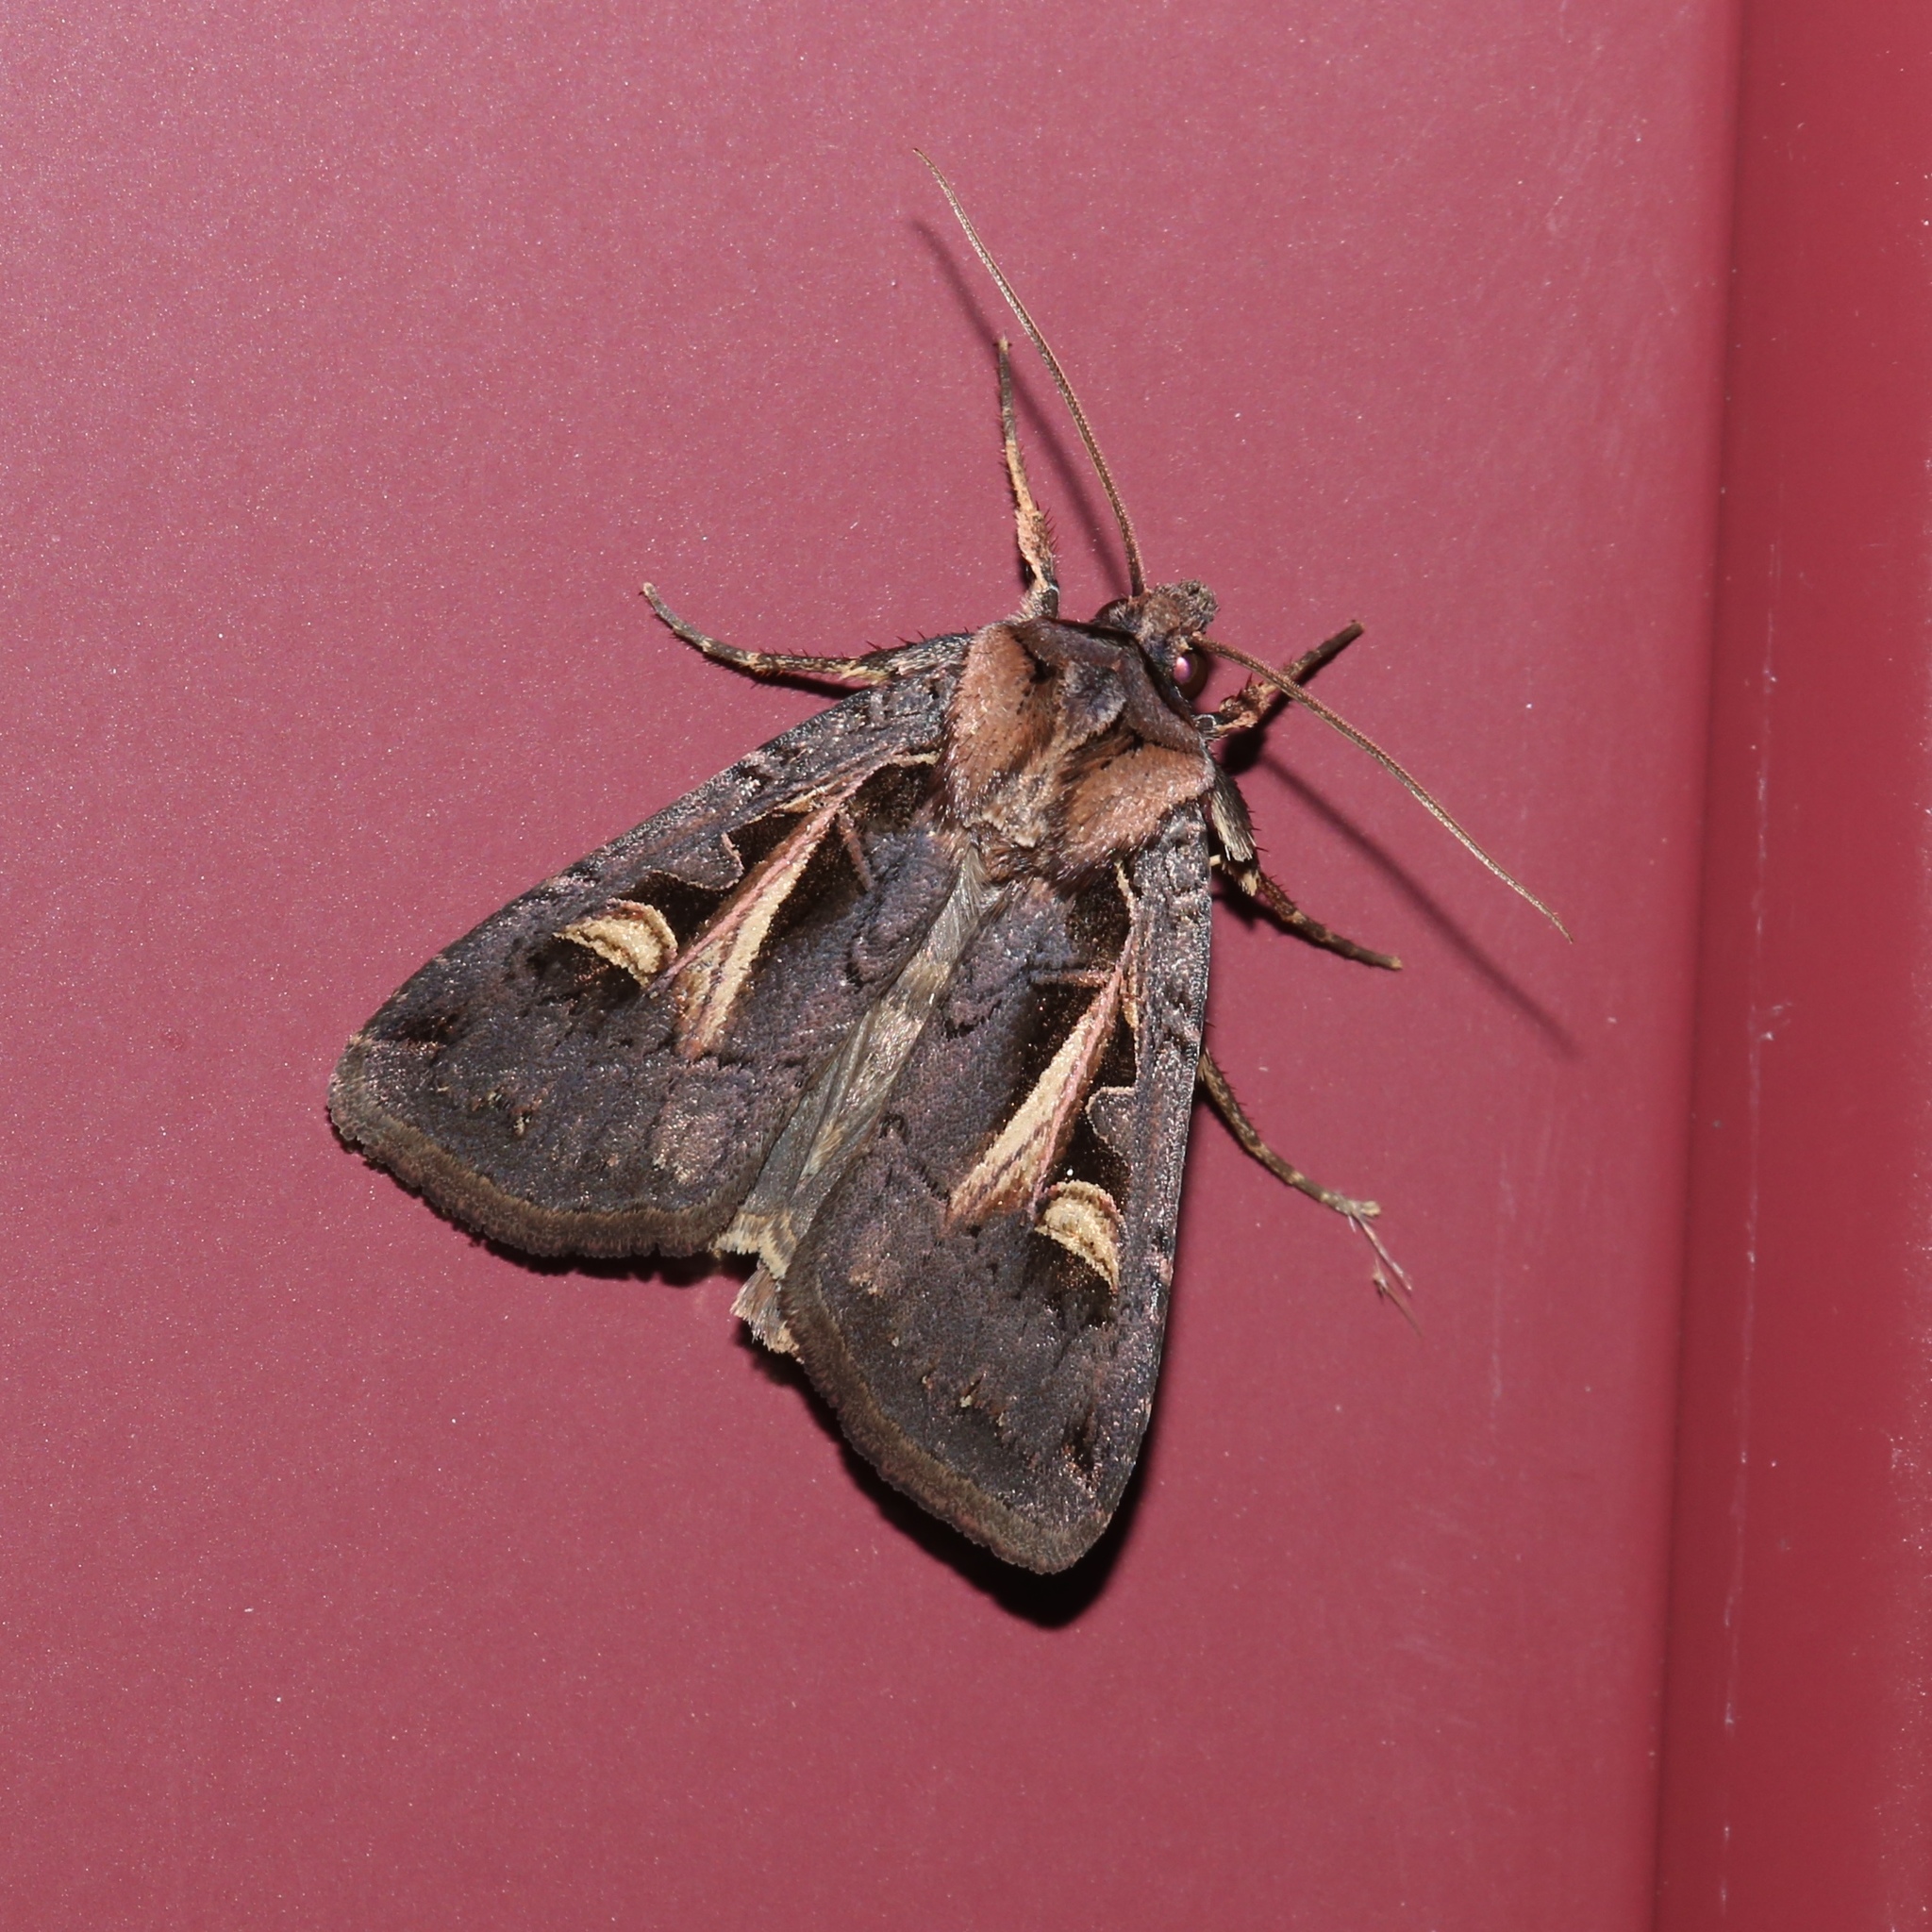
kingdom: Animalia
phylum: Arthropoda
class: Insecta
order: Lepidoptera
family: Noctuidae
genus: Feltia
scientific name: Feltia herilis
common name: Master's dart
